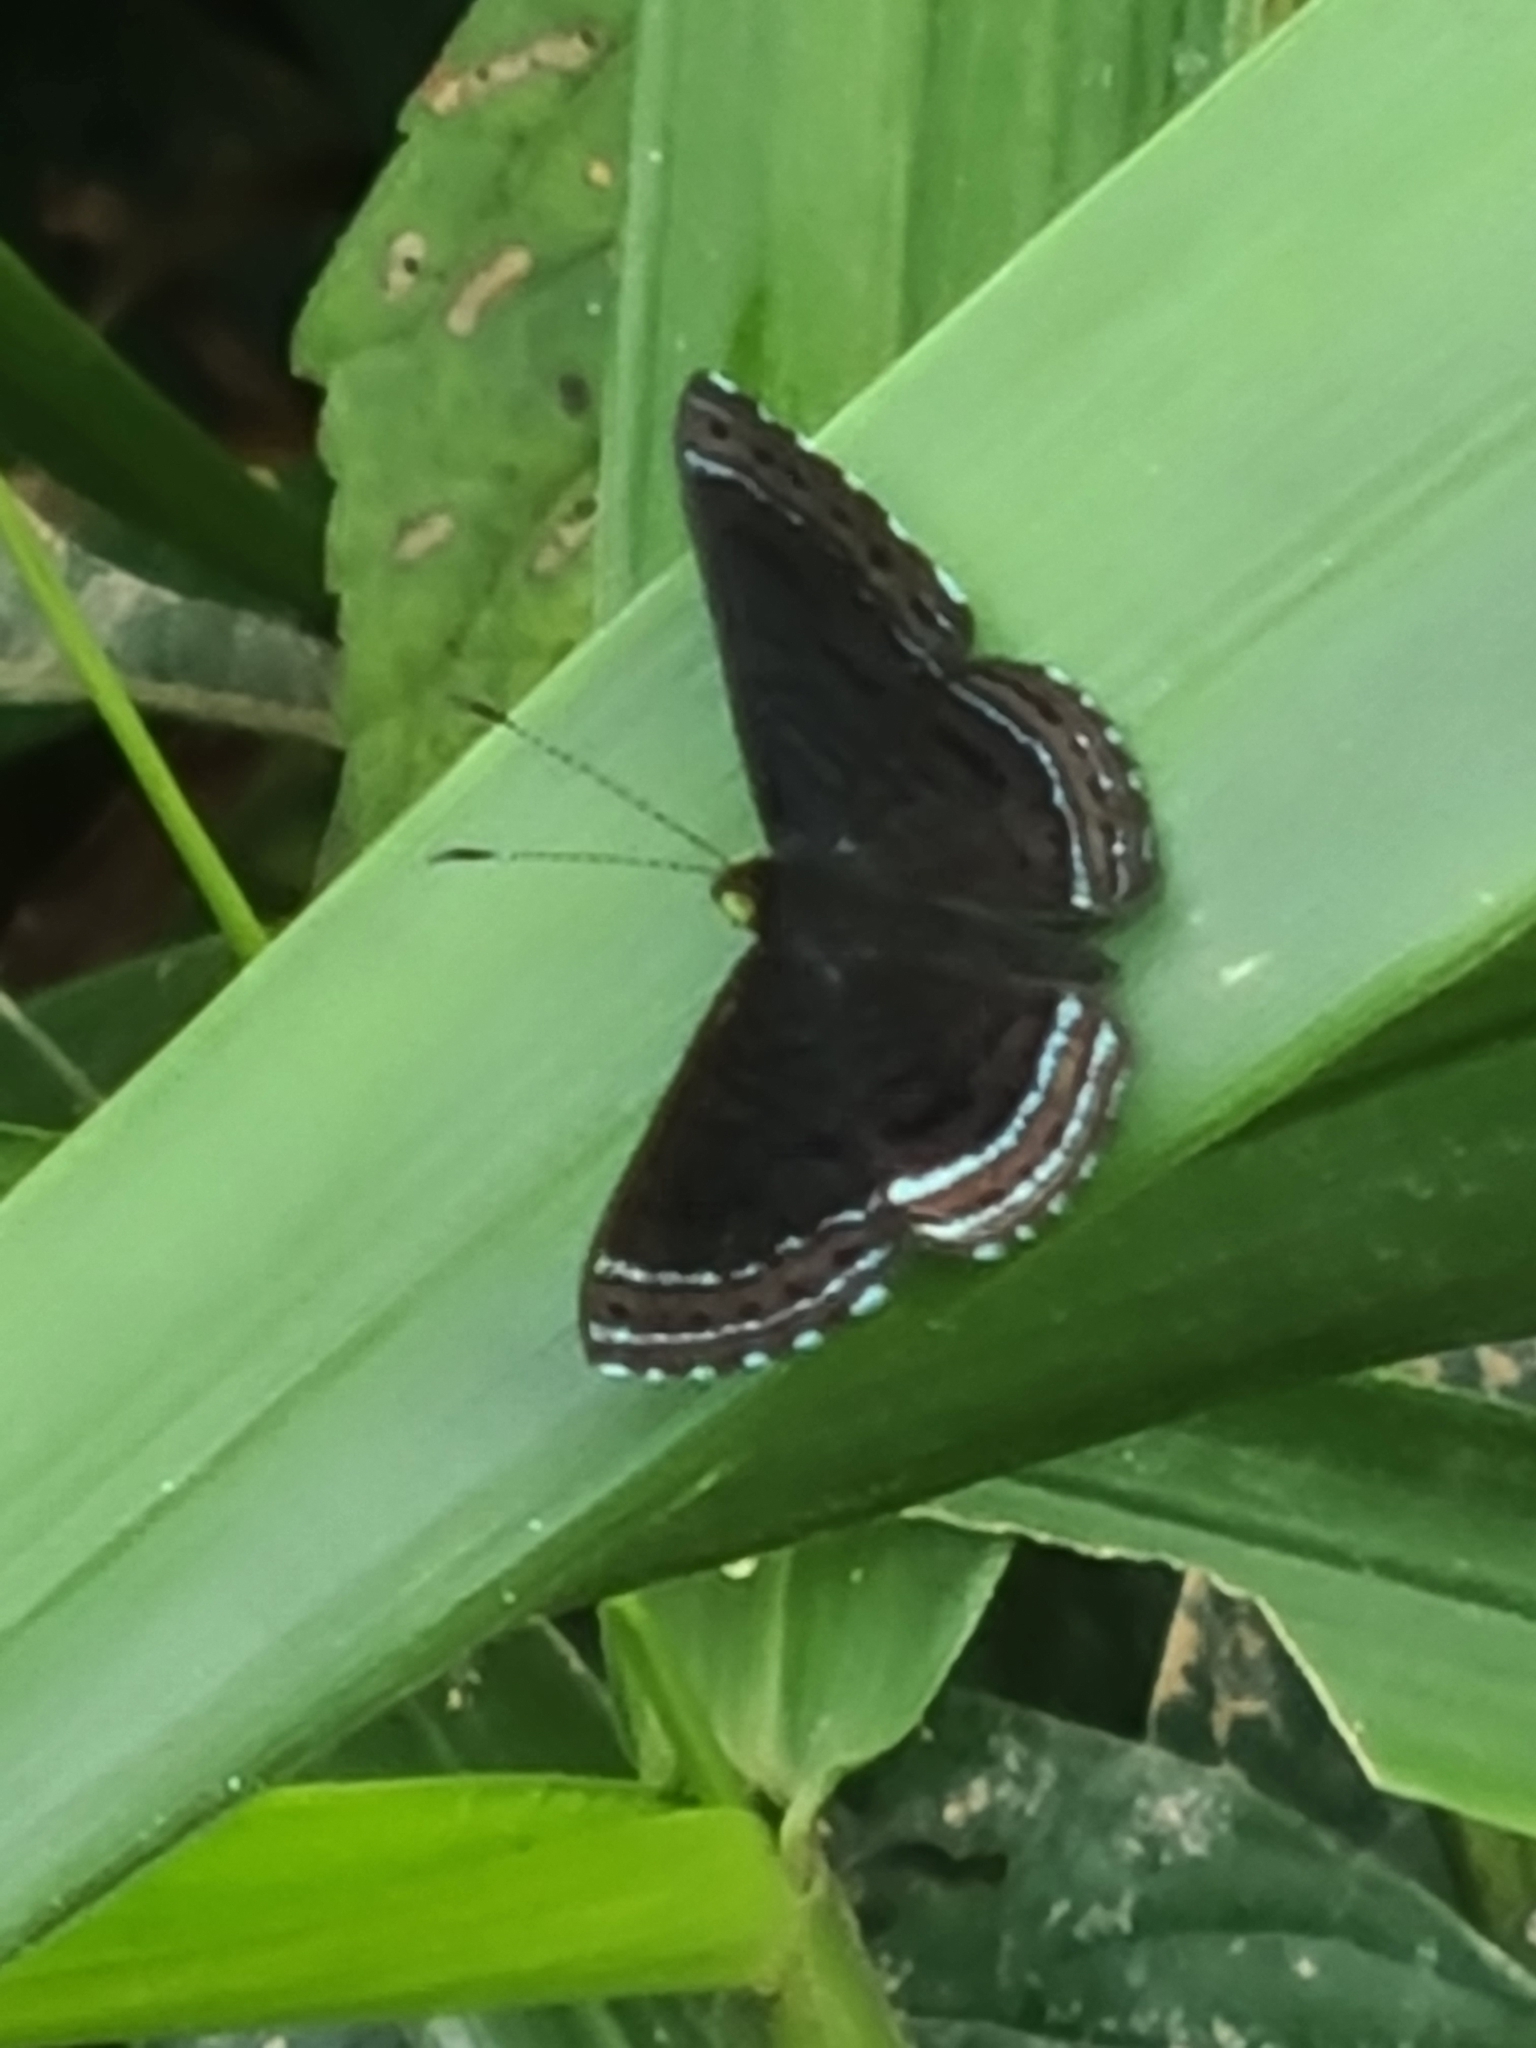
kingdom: Animalia
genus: Charis
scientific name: Charis anius
